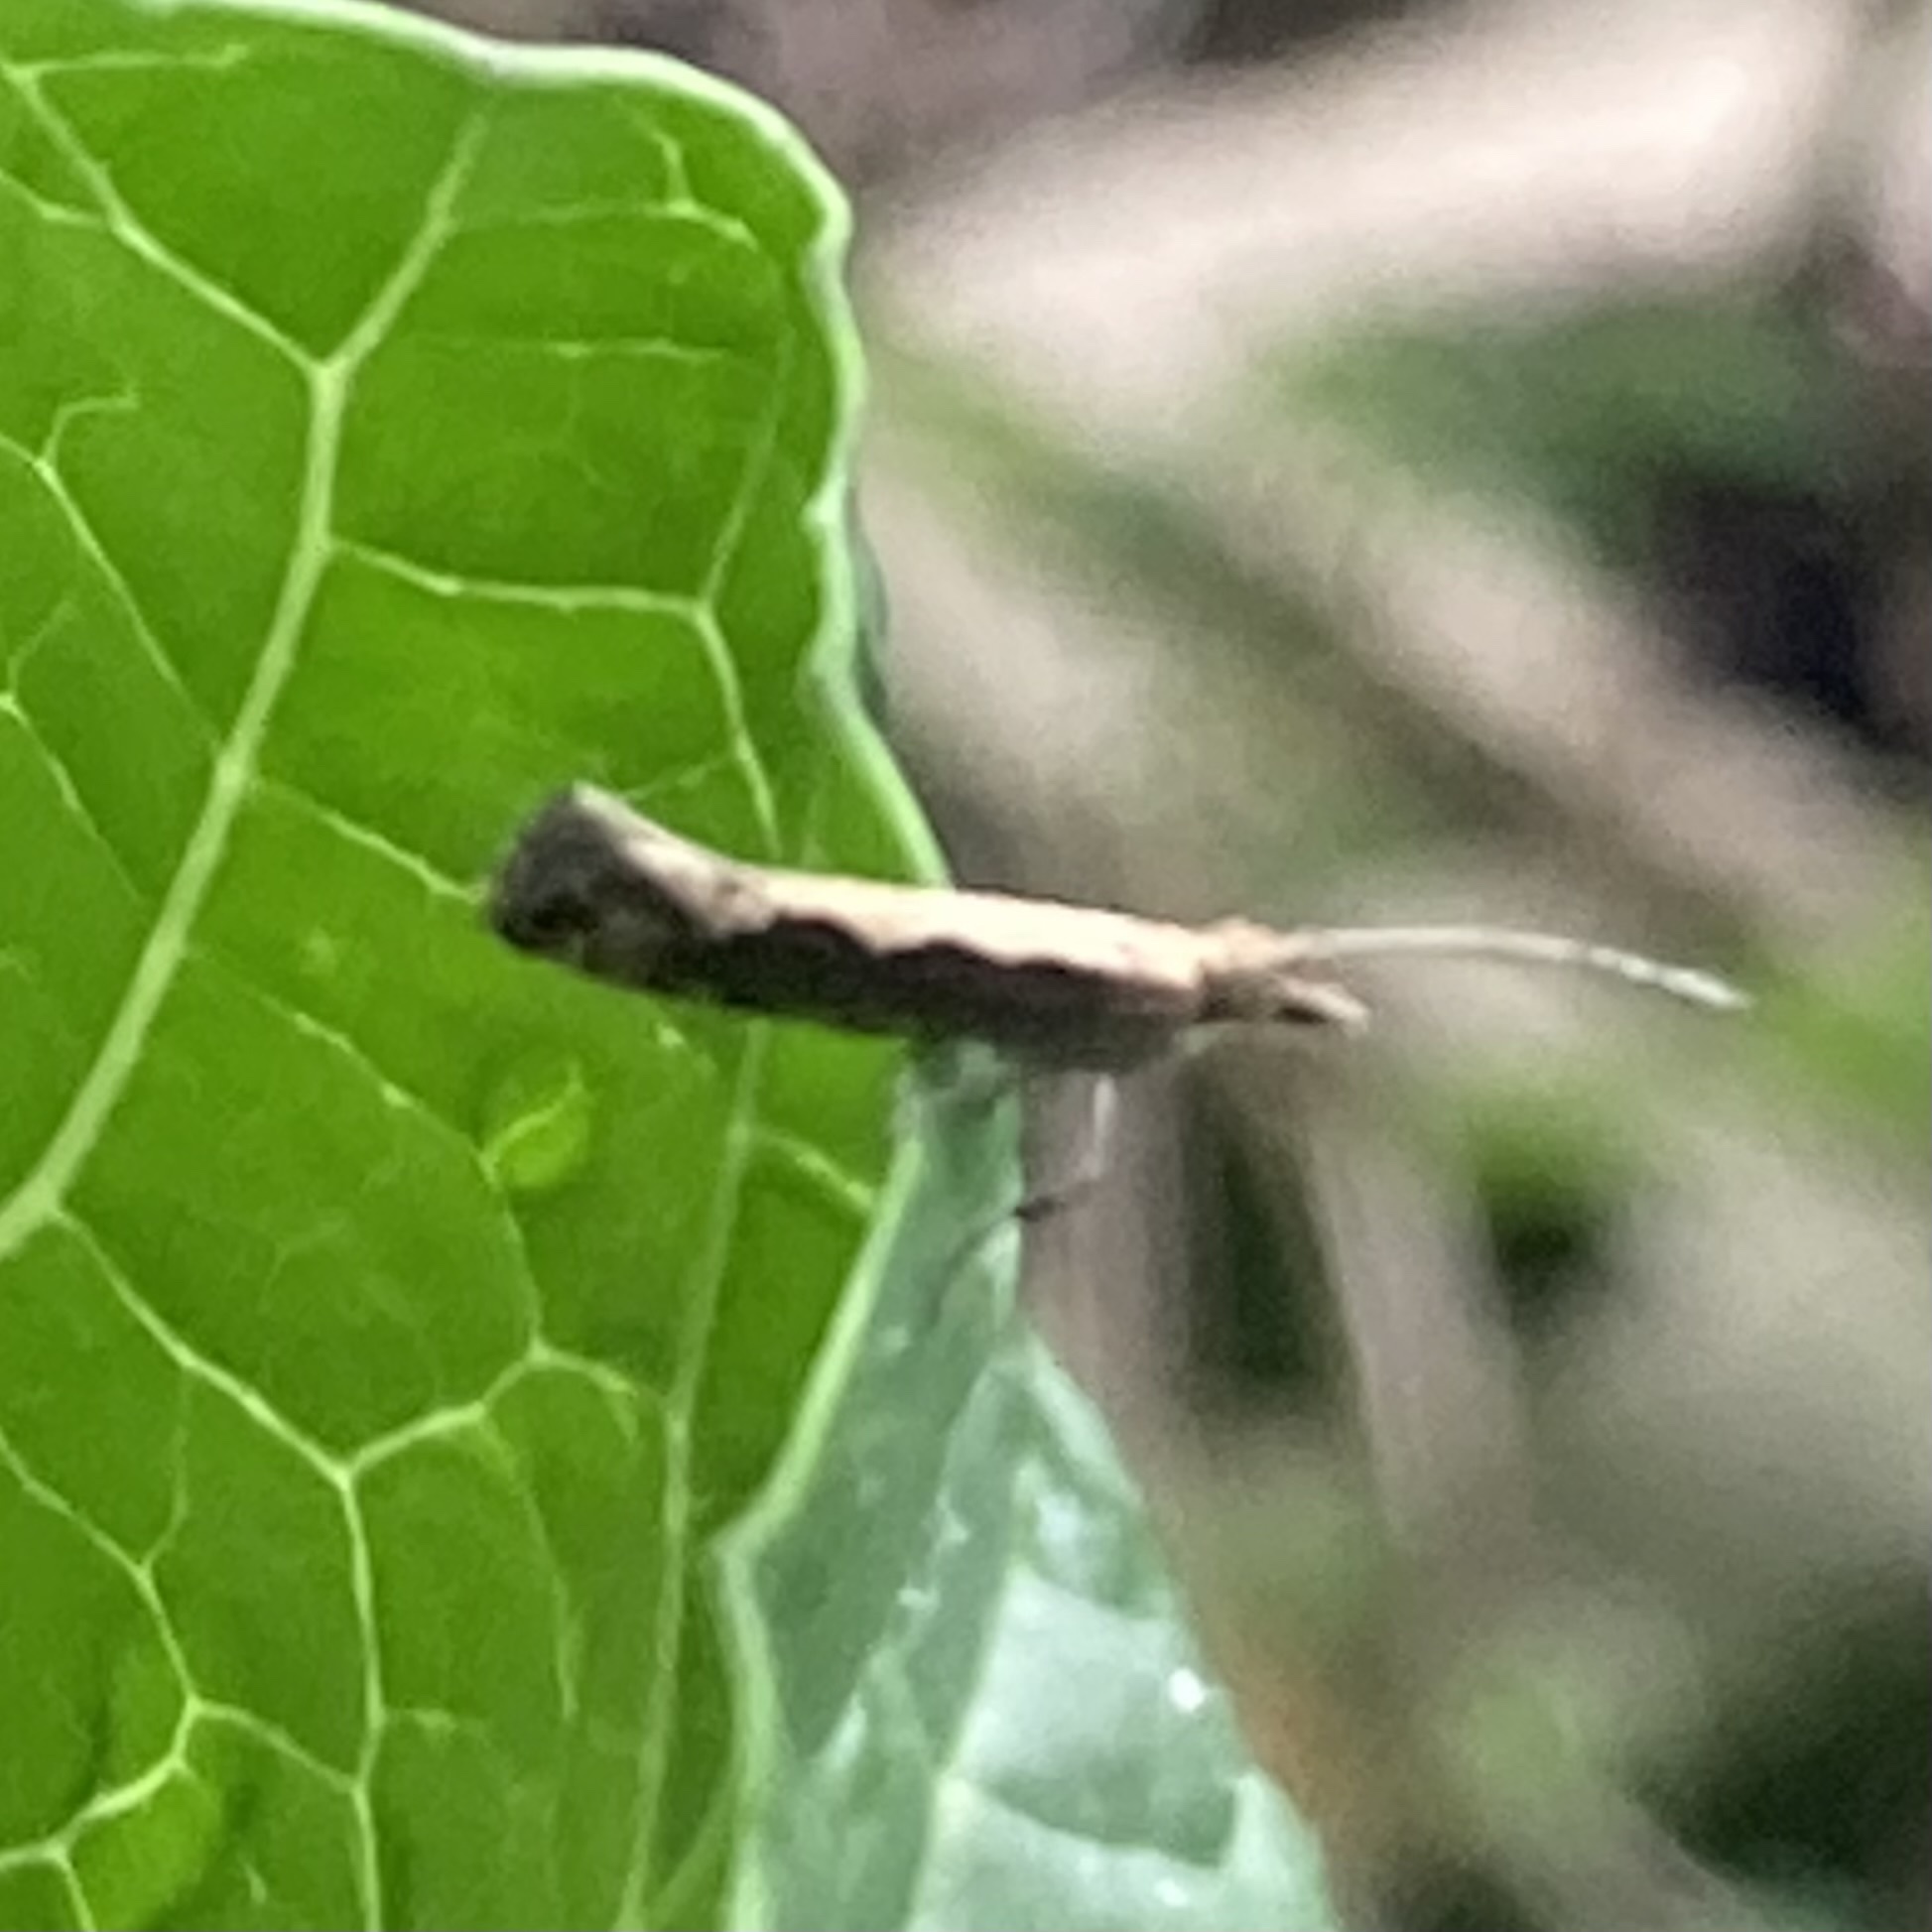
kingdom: Animalia
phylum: Arthropoda
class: Insecta
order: Lepidoptera
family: Plutellidae
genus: Plutella
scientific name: Plutella xylostella
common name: Diamond-back moth
